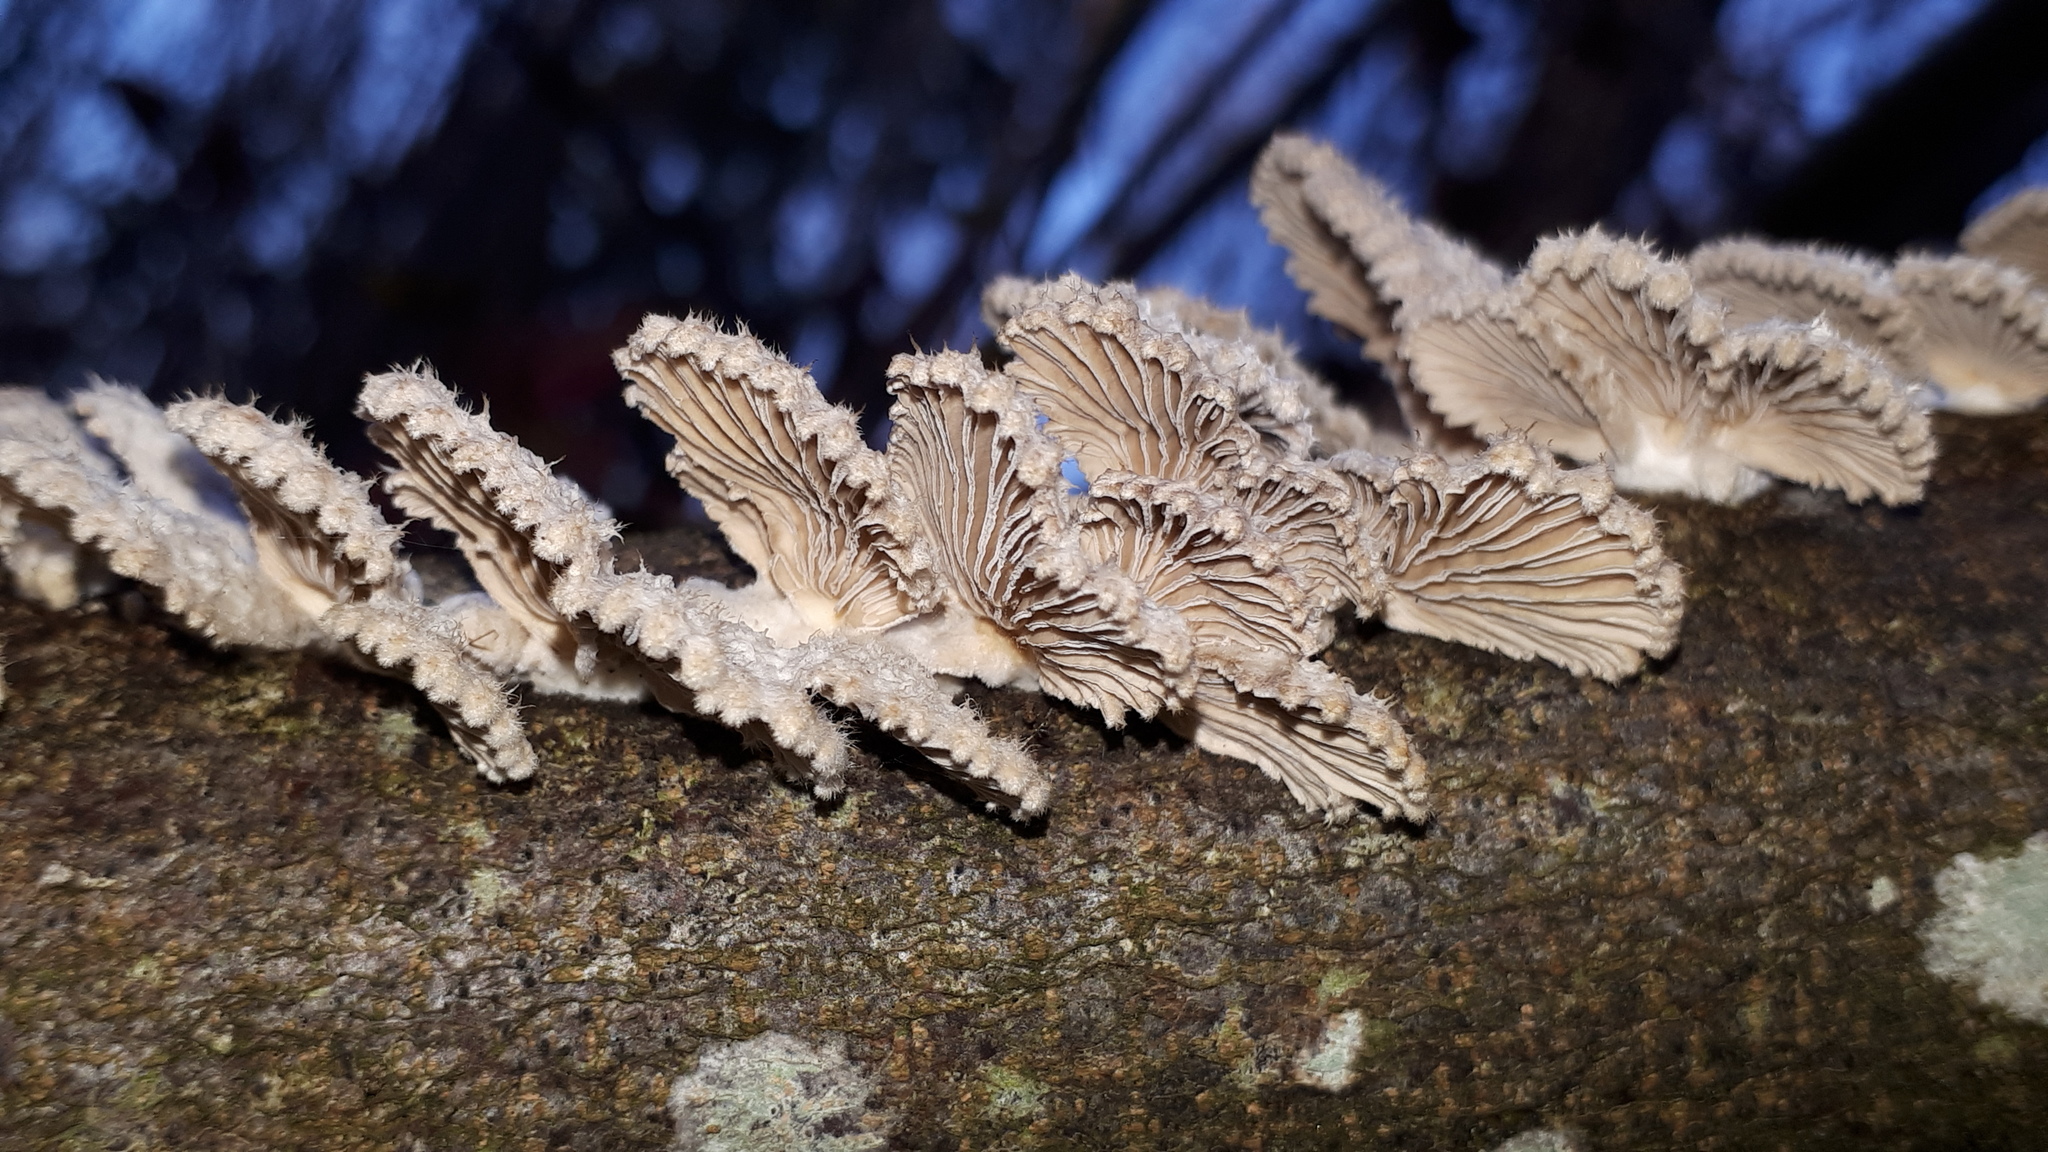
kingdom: Fungi
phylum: Basidiomycota
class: Agaricomycetes
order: Agaricales
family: Schizophyllaceae
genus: Schizophyllum
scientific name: Schizophyllum commune
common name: Common porecrust
